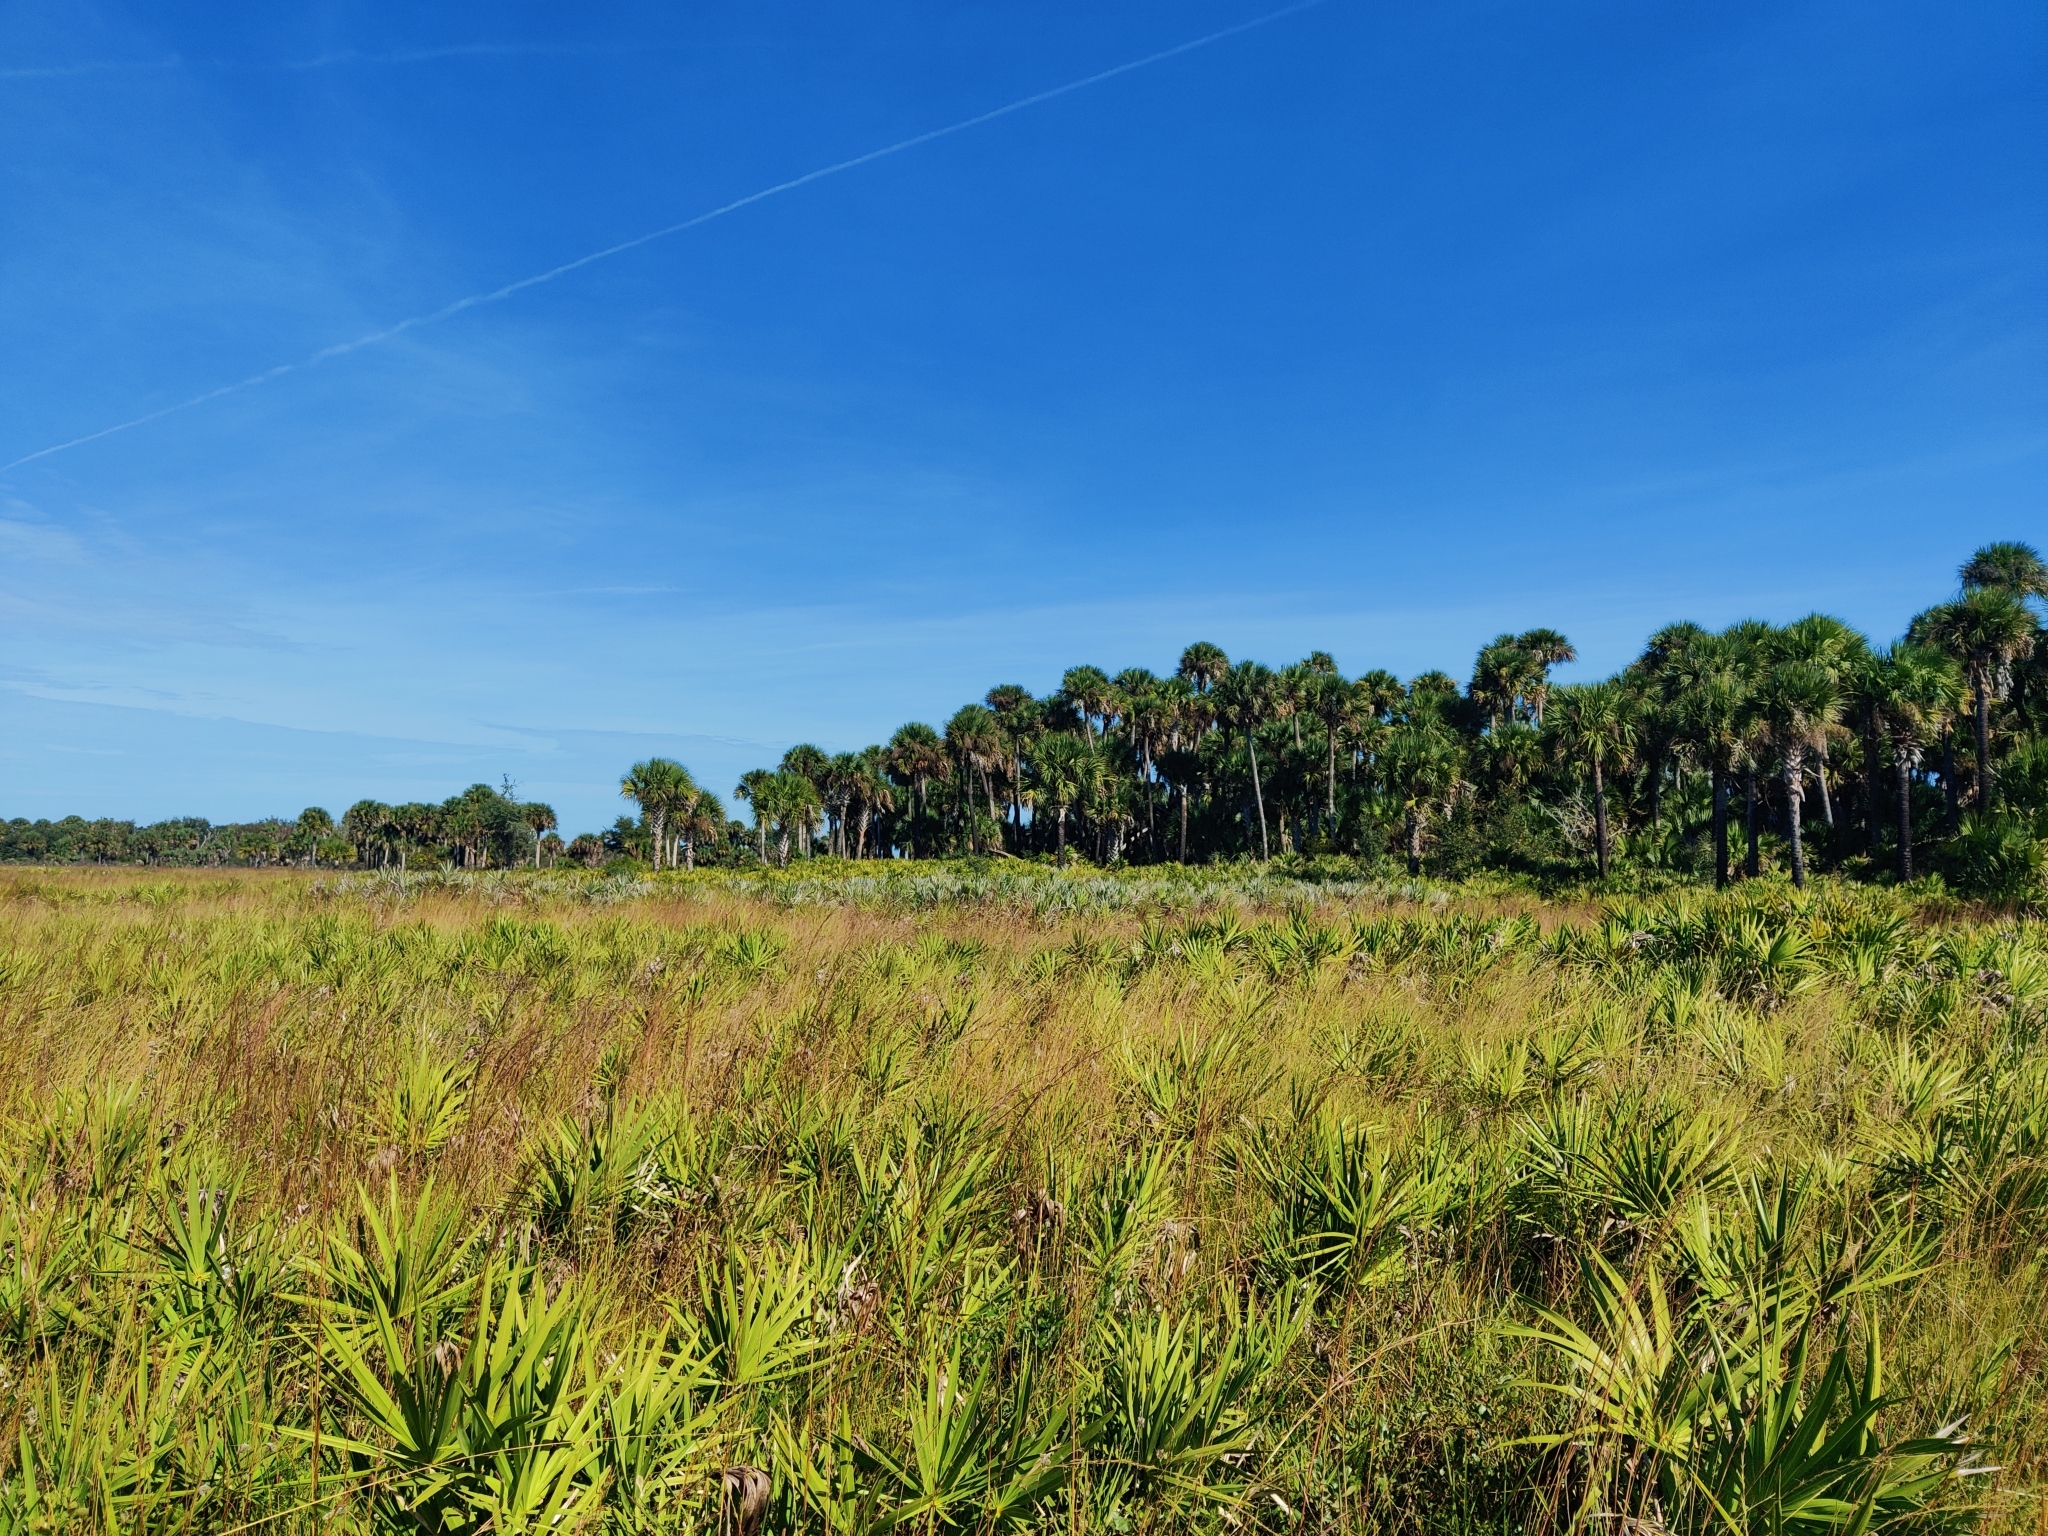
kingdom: Plantae
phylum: Tracheophyta
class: Liliopsida
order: Arecales
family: Arecaceae
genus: Serenoa
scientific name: Serenoa repens
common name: Saw-palmetto
